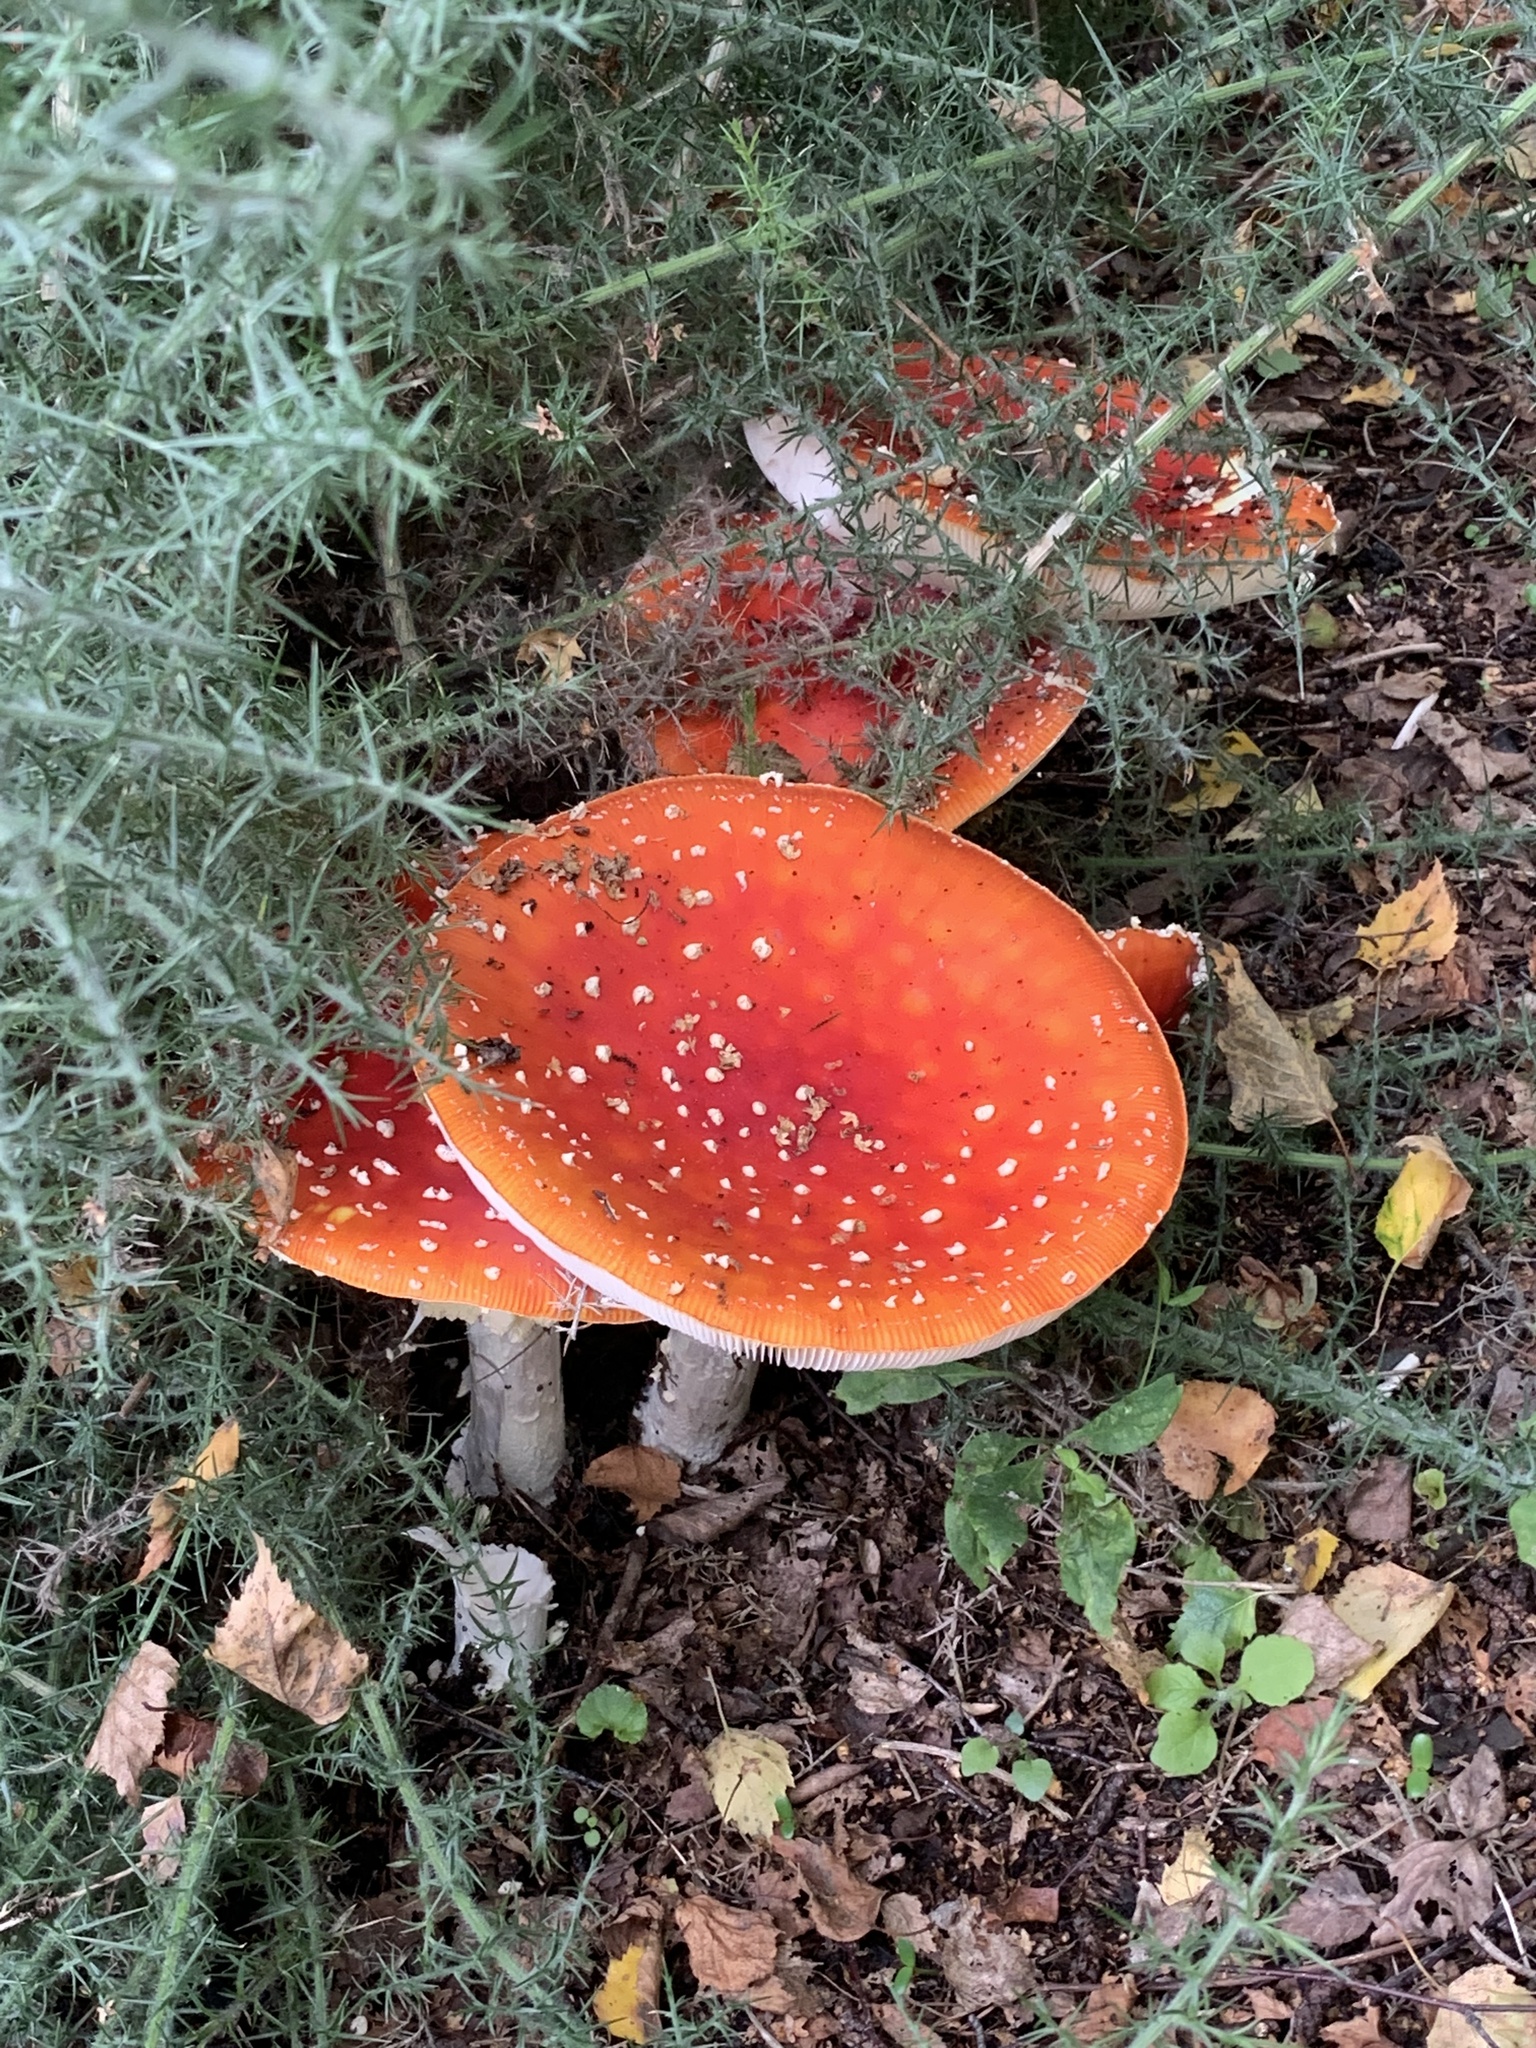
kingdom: Fungi
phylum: Basidiomycota
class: Agaricomycetes
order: Agaricales
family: Amanitaceae
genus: Amanita
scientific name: Amanita muscaria
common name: Fly agaric
